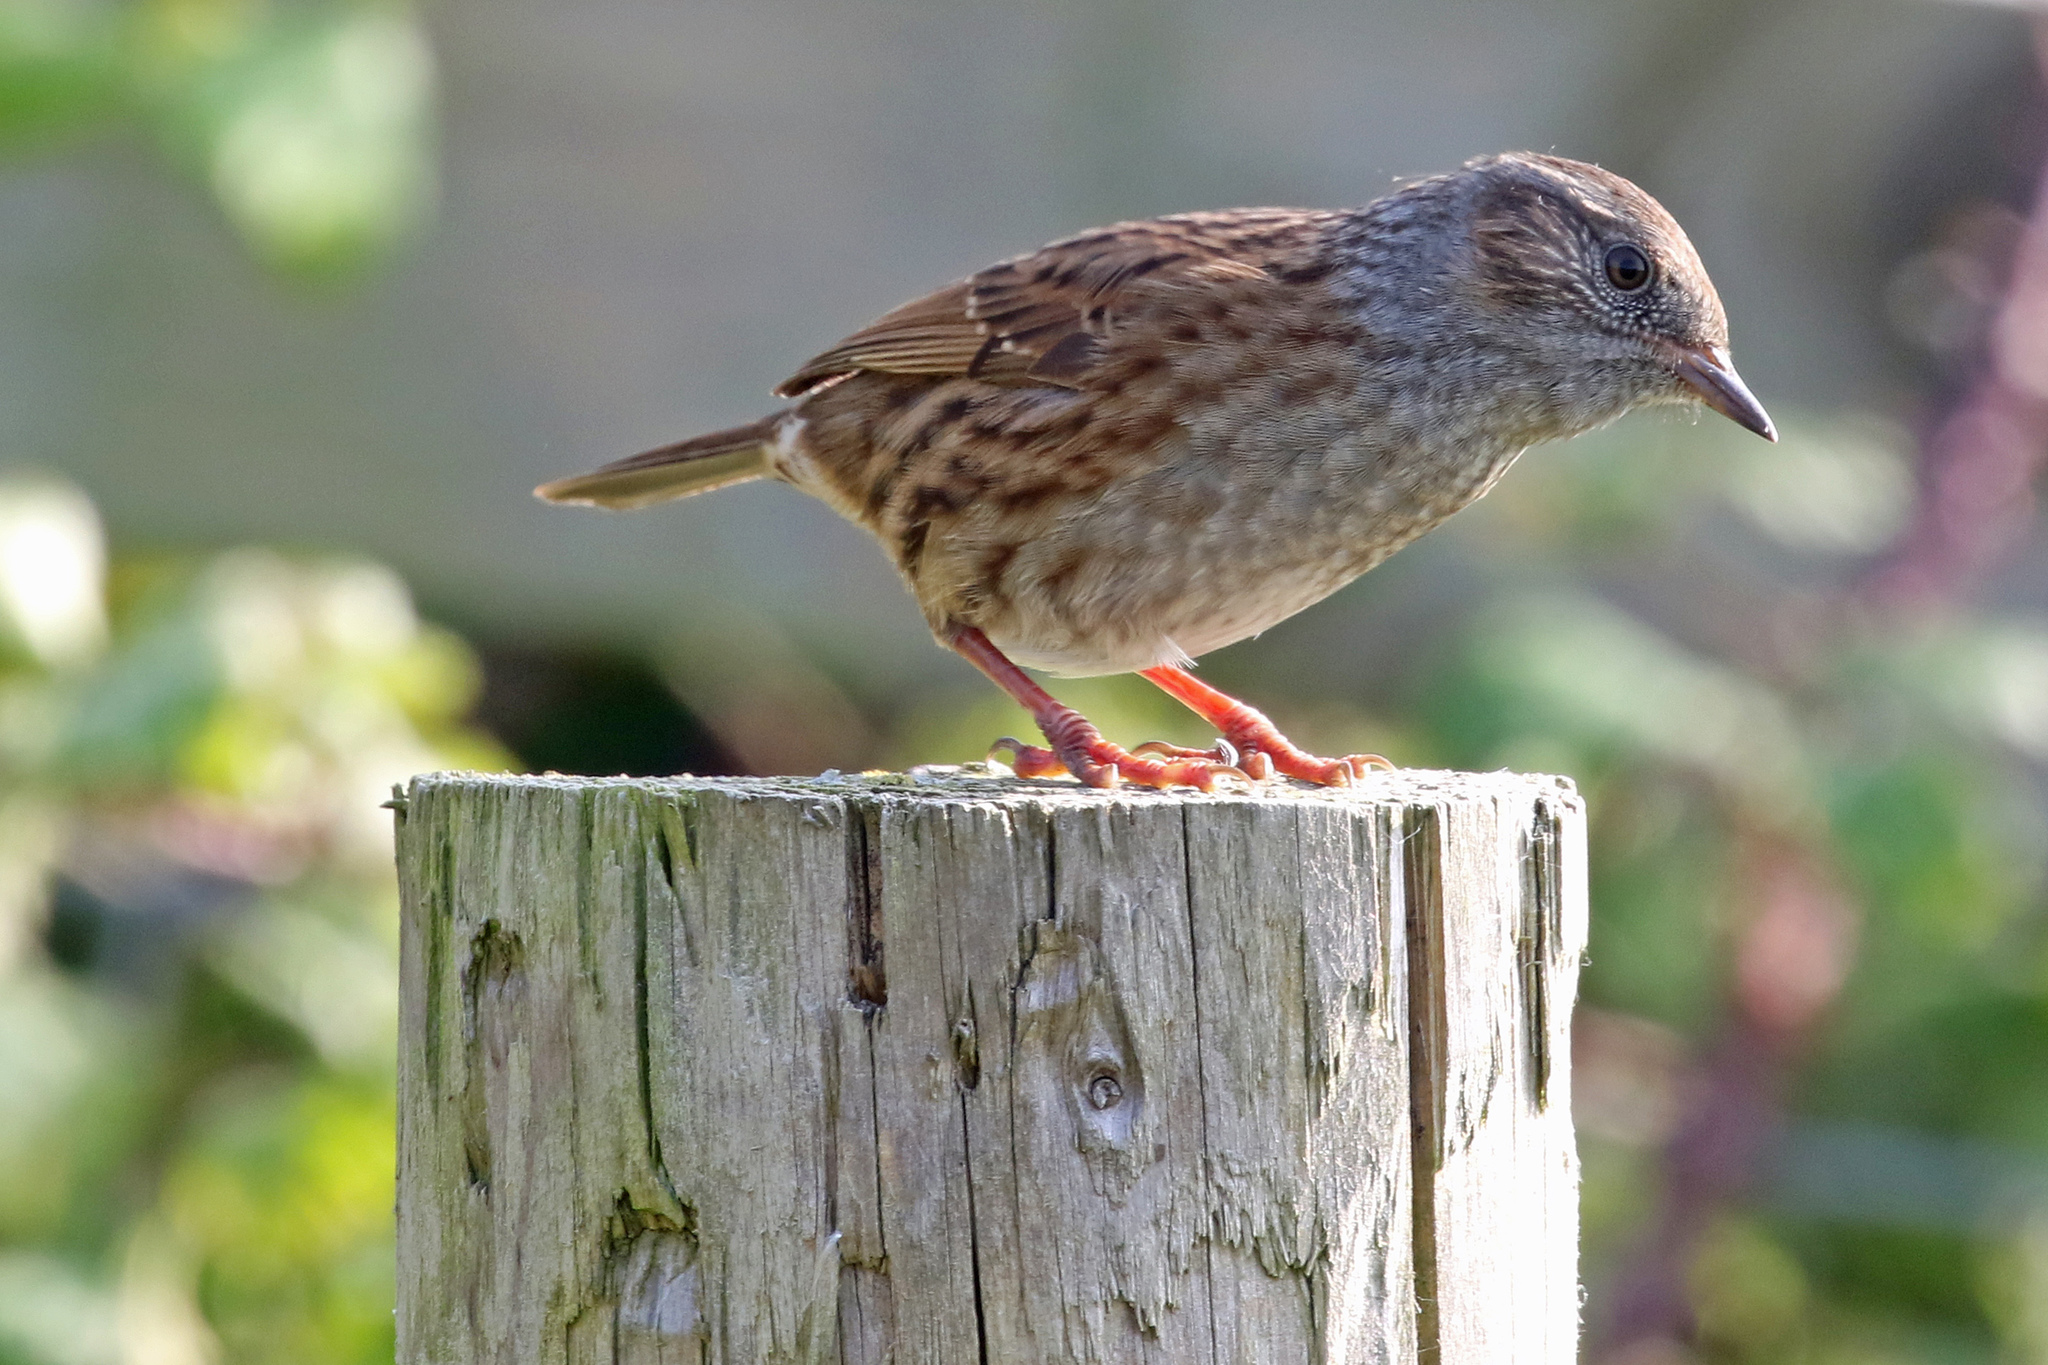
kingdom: Animalia
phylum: Chordata
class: Aves
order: Passeriformes
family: Prunellidae
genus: Prunella
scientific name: Prunella modularis
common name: Dunnock
